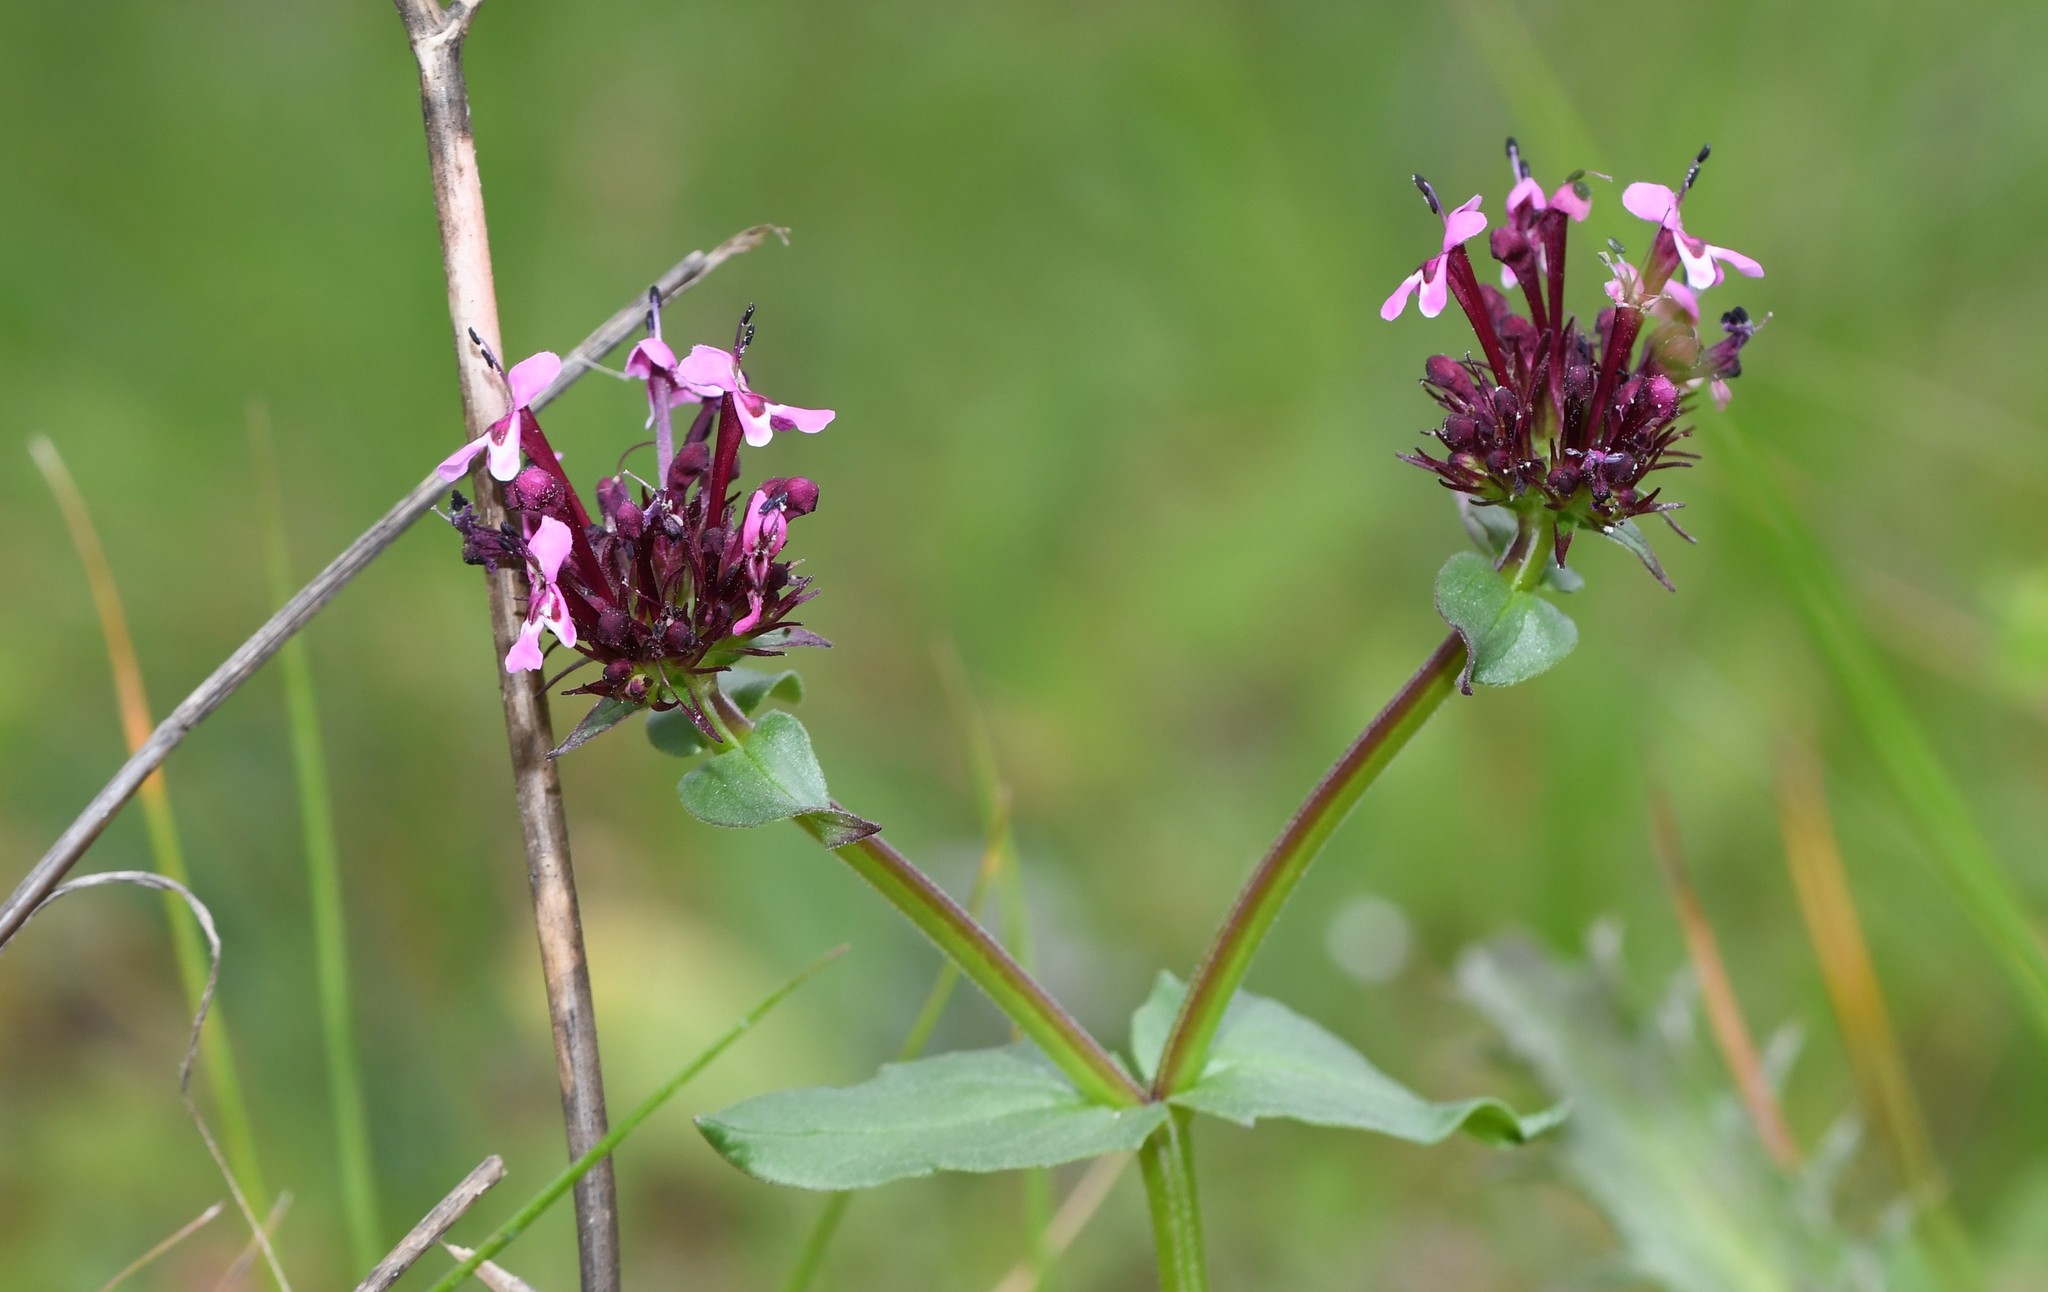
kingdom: Plantae
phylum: Tracheophyta
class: Magnoliopsida
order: Dipsacales
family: Caprifoliaceae
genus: Fedia
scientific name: Fedia cornucopiae
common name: Horn-of-plenty
